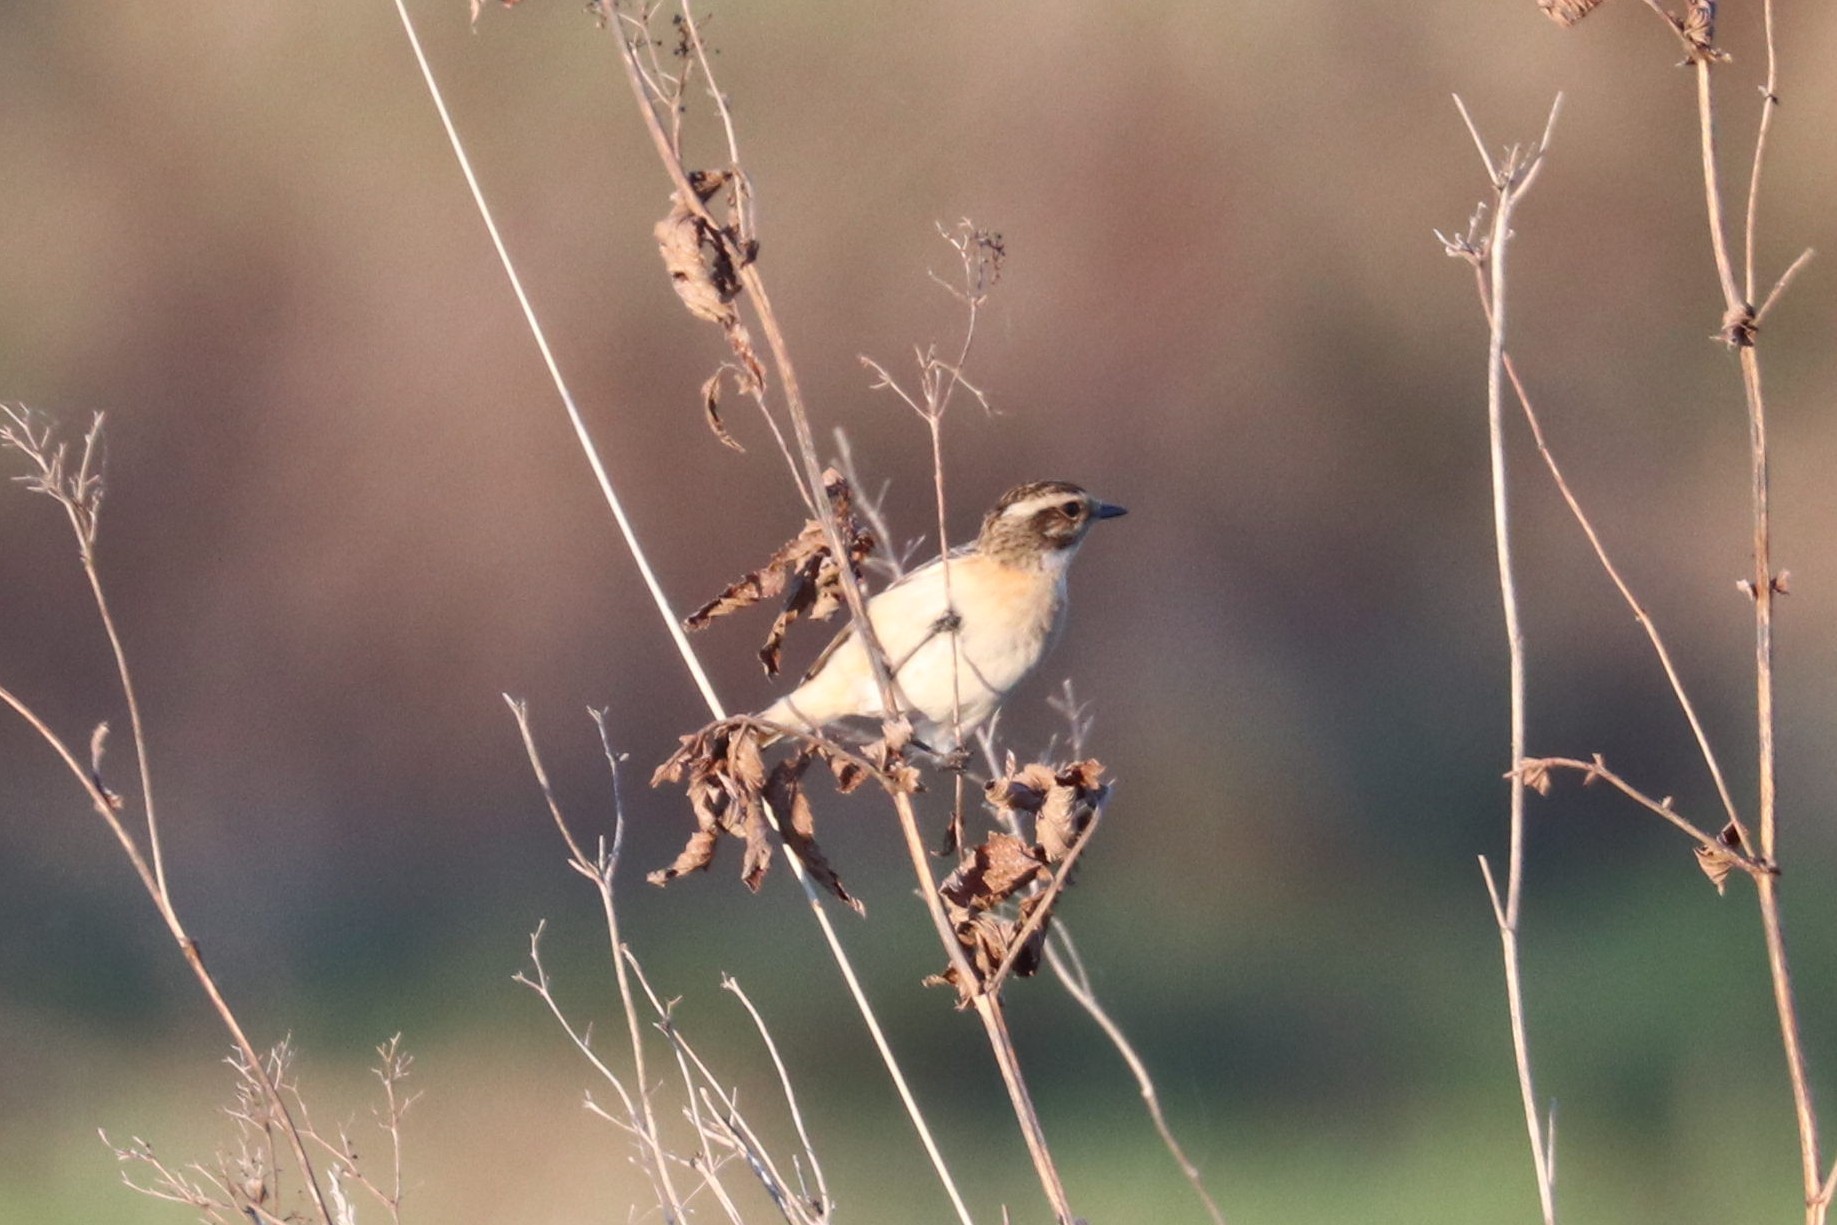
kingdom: Animalia
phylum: Chordata
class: Aves
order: Passeriformes
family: Muscicapidae
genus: Saxicola
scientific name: Saxicola rubetra
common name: Whinchat
